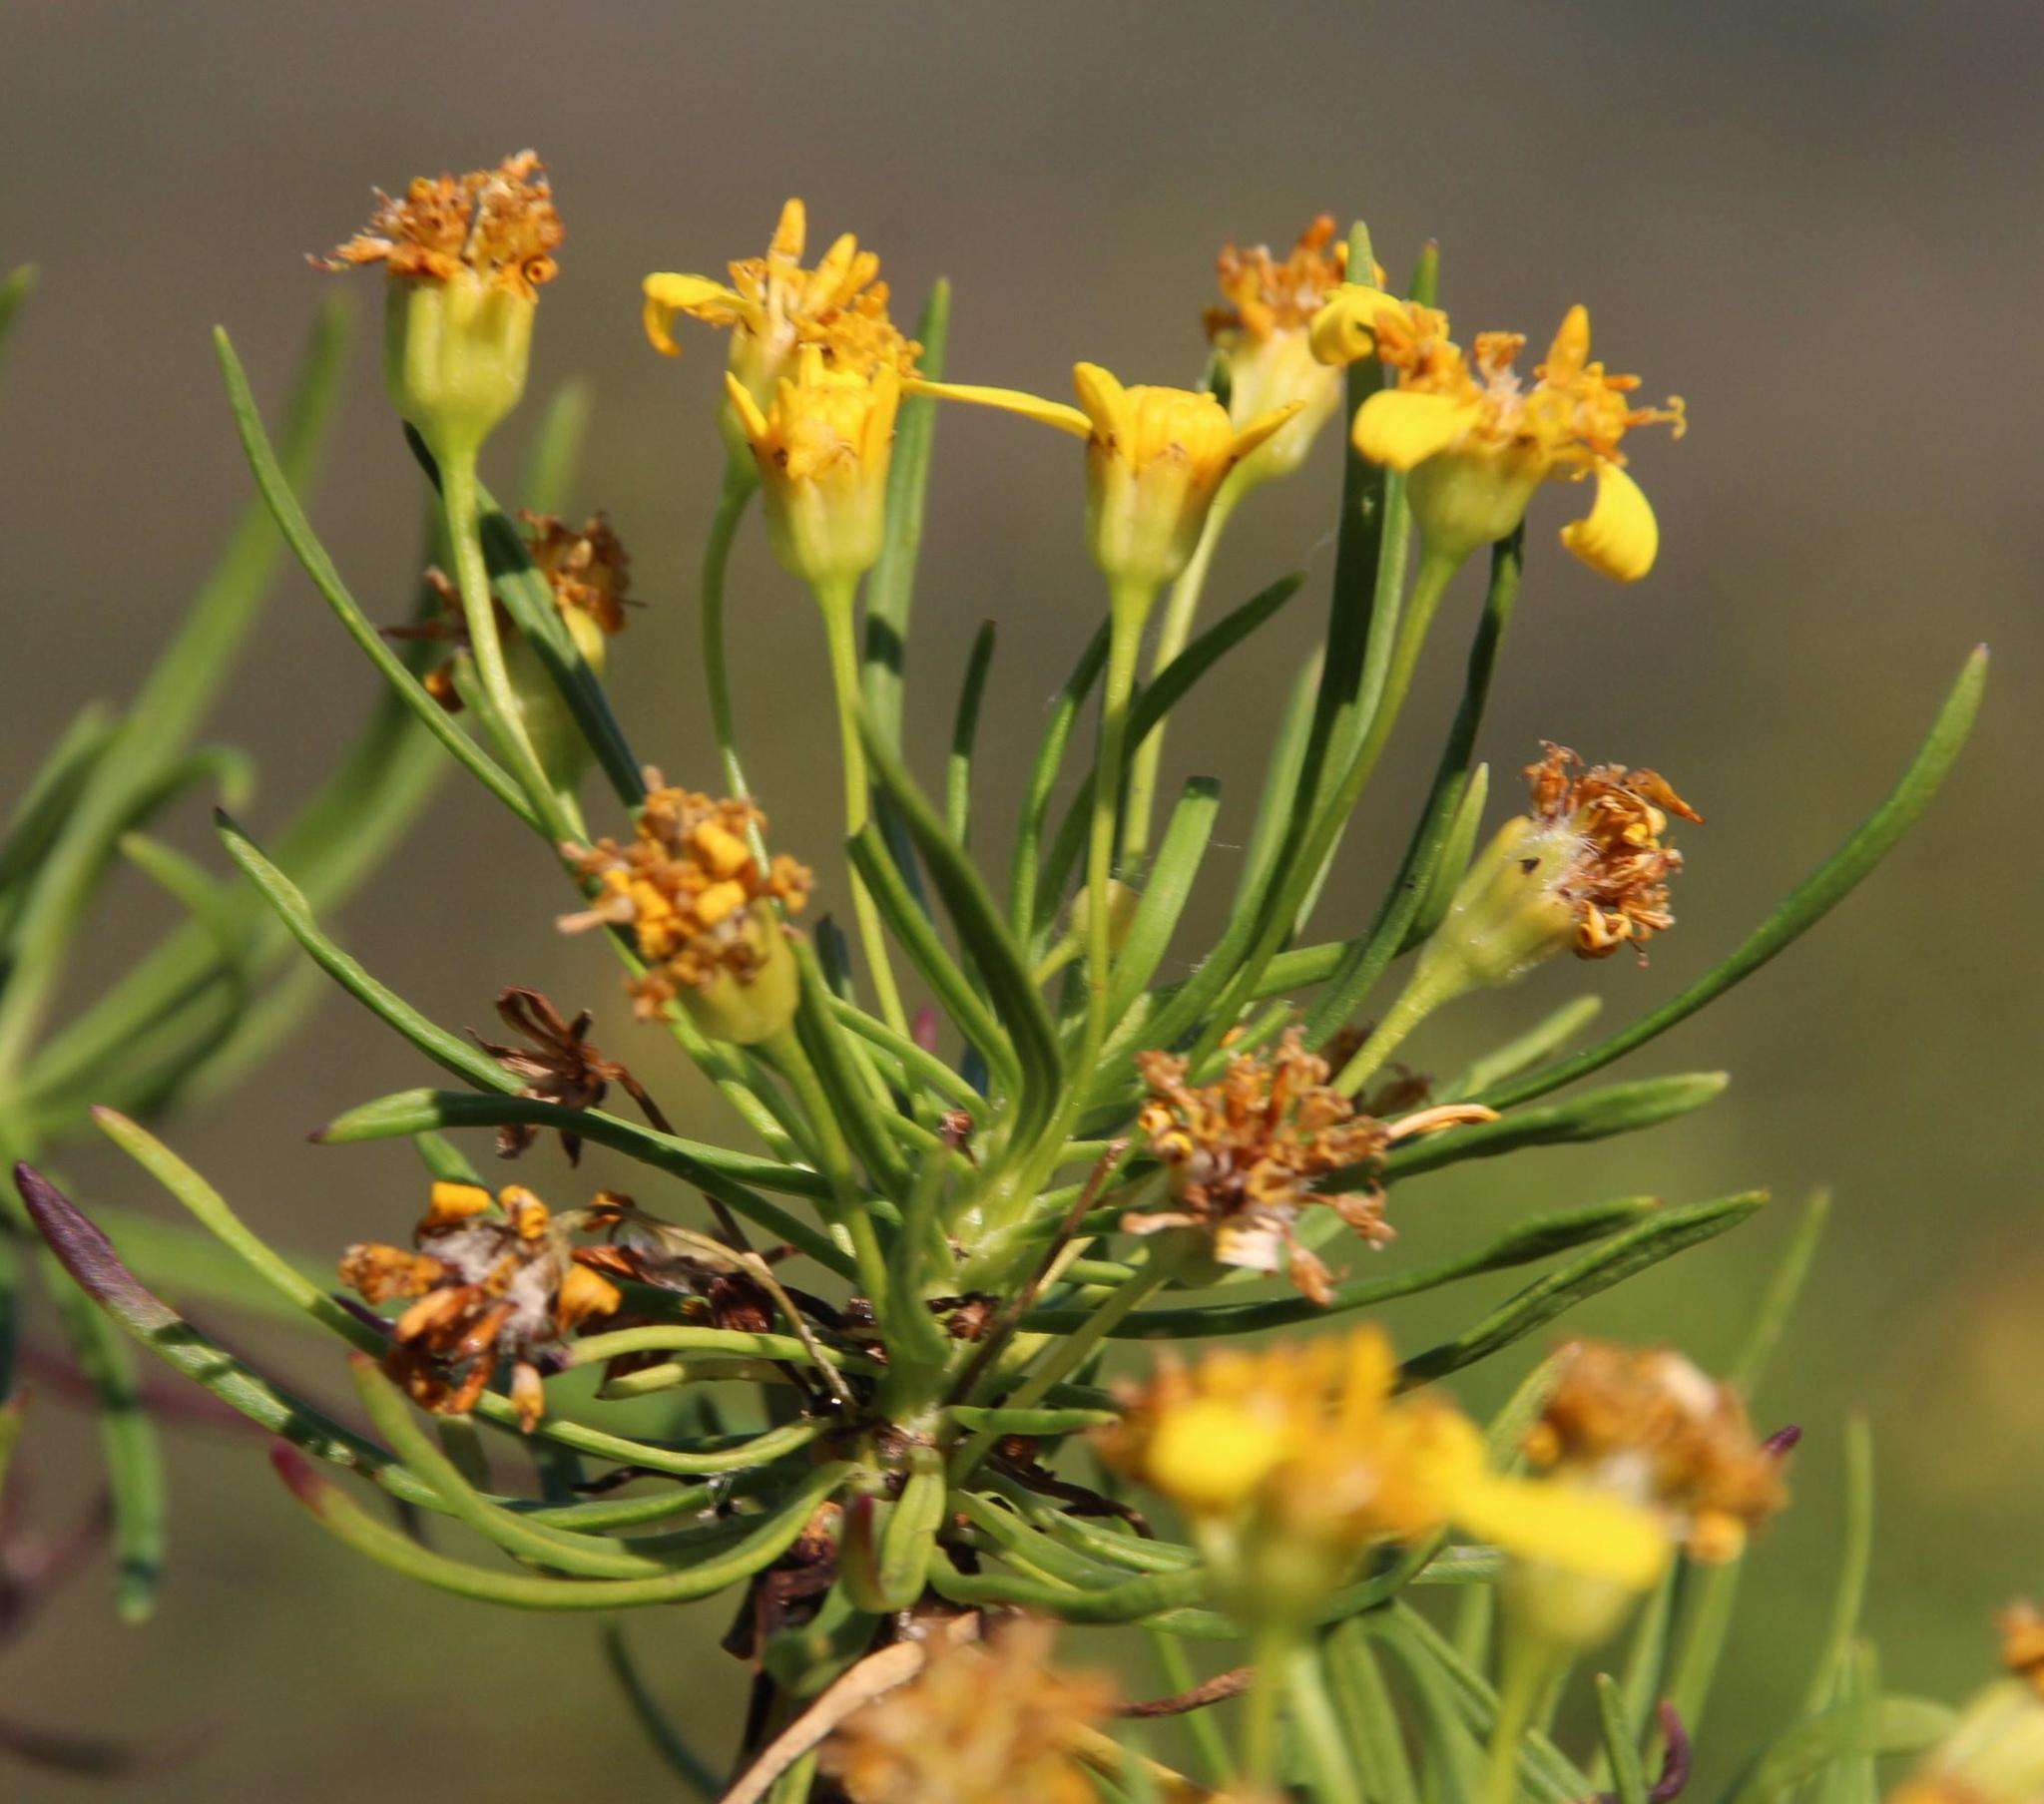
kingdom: Plantae
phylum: Tracheophyta
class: Magnoliopsida
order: Asterales
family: Asteraceae
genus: Euryops
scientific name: Euryops brevipapposus
